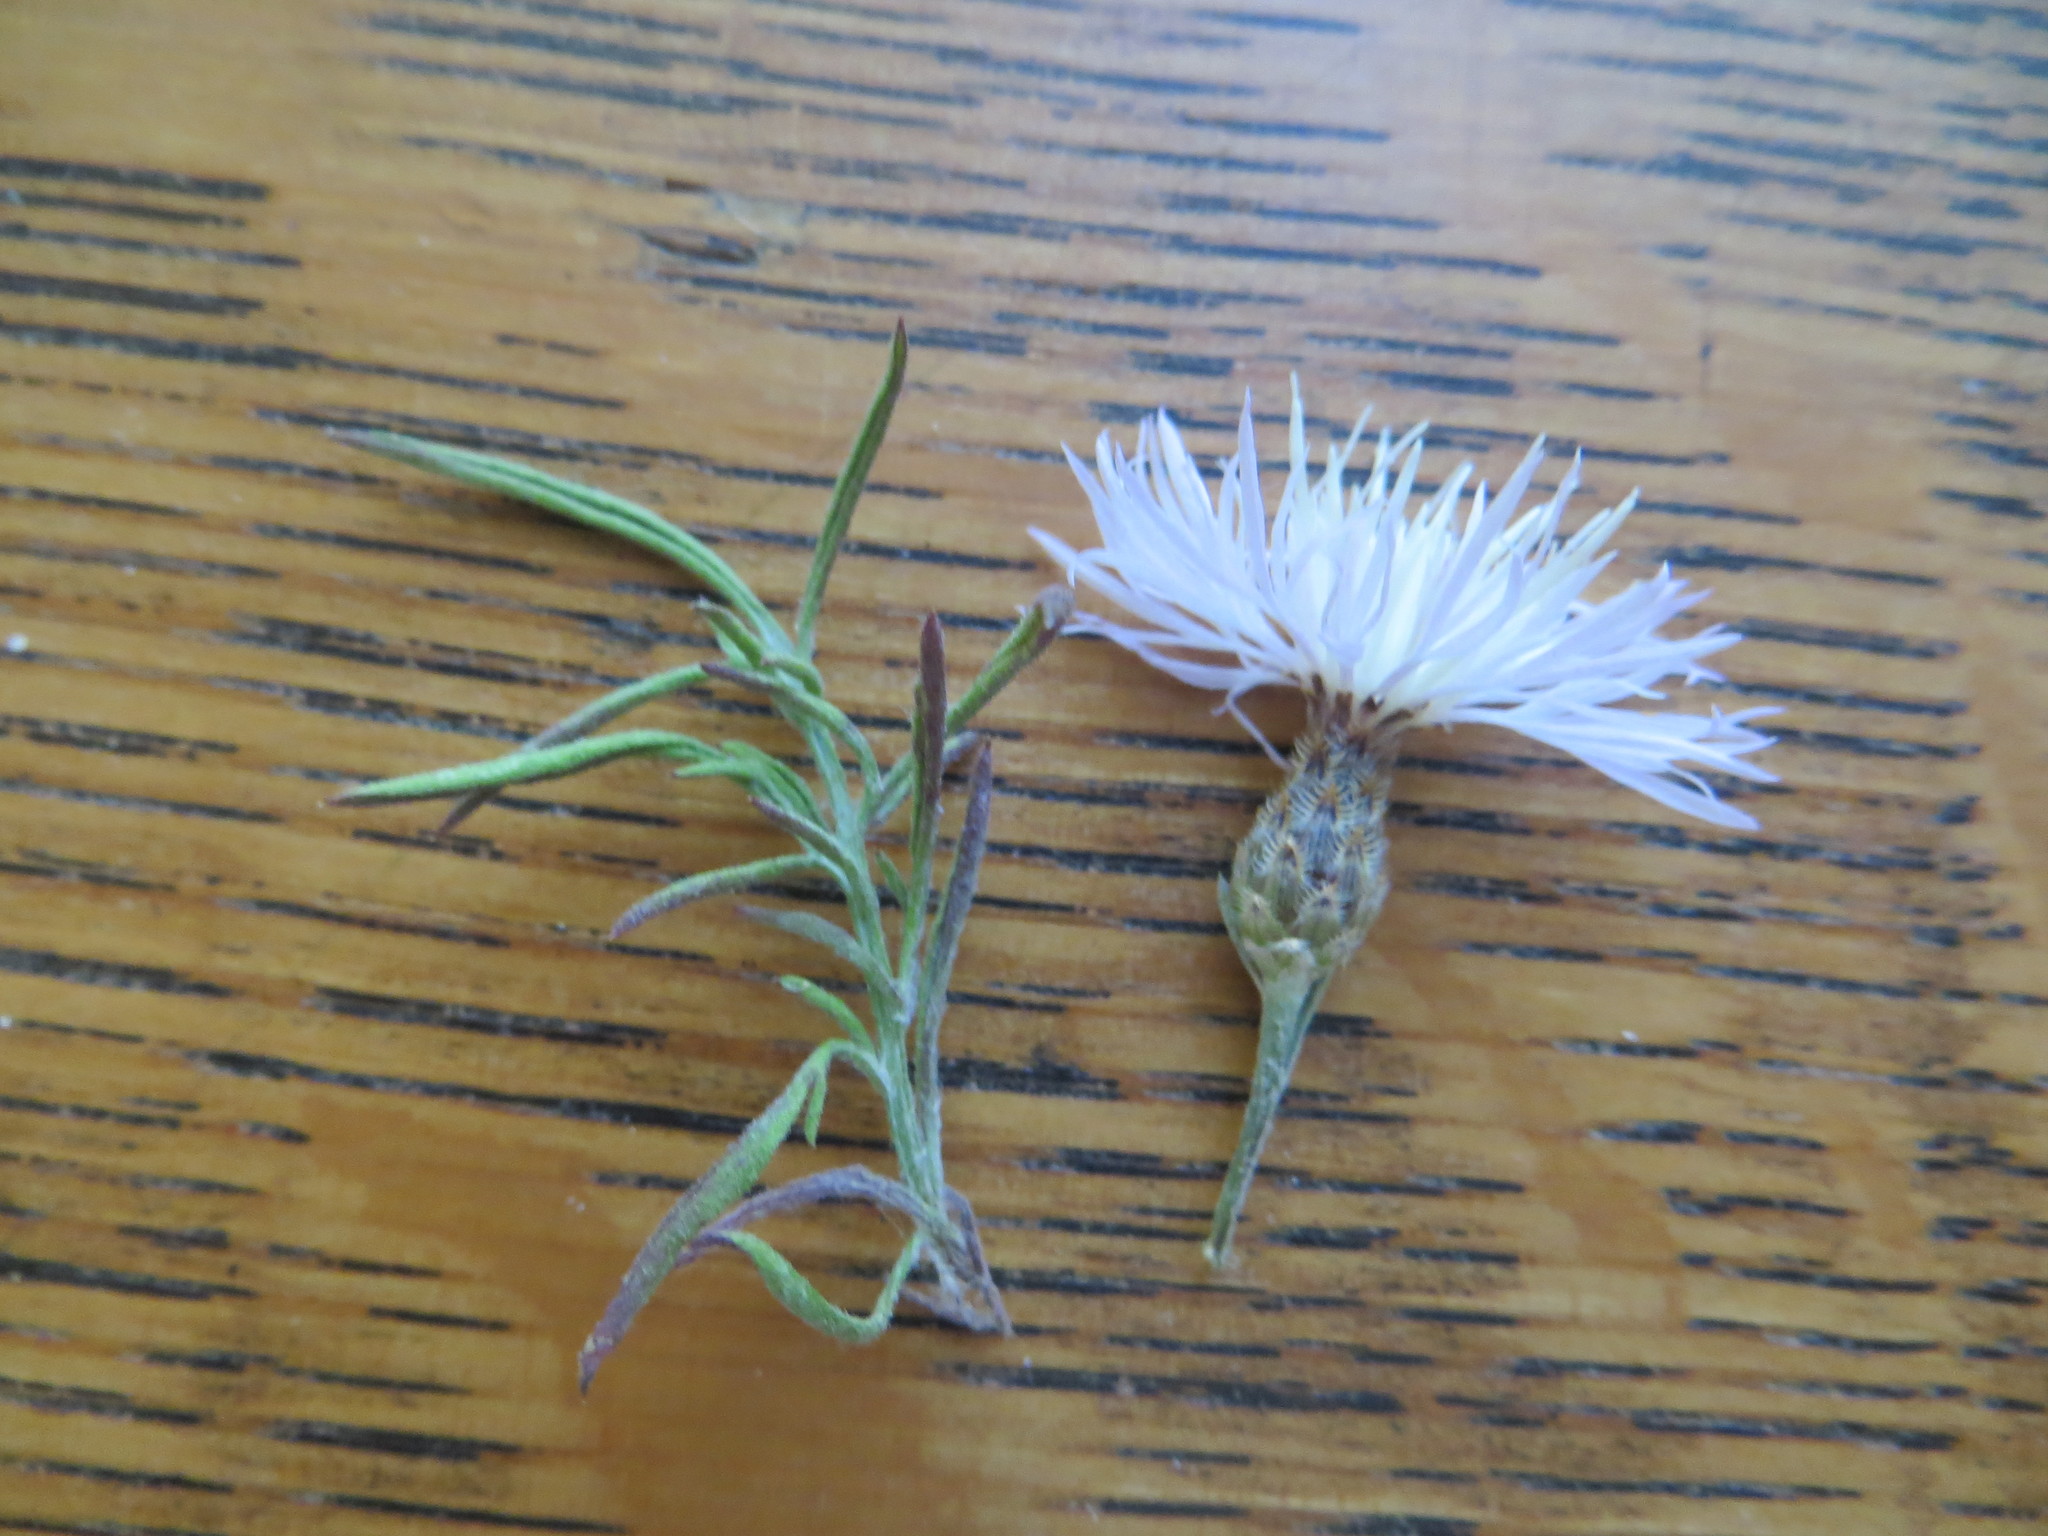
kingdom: Plantae
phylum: Tracheophyta
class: Magnoliopsida
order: Asterales
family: Asteraceae
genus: Centaurea
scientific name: Centaurea stoebe
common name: Spotted knapweed
